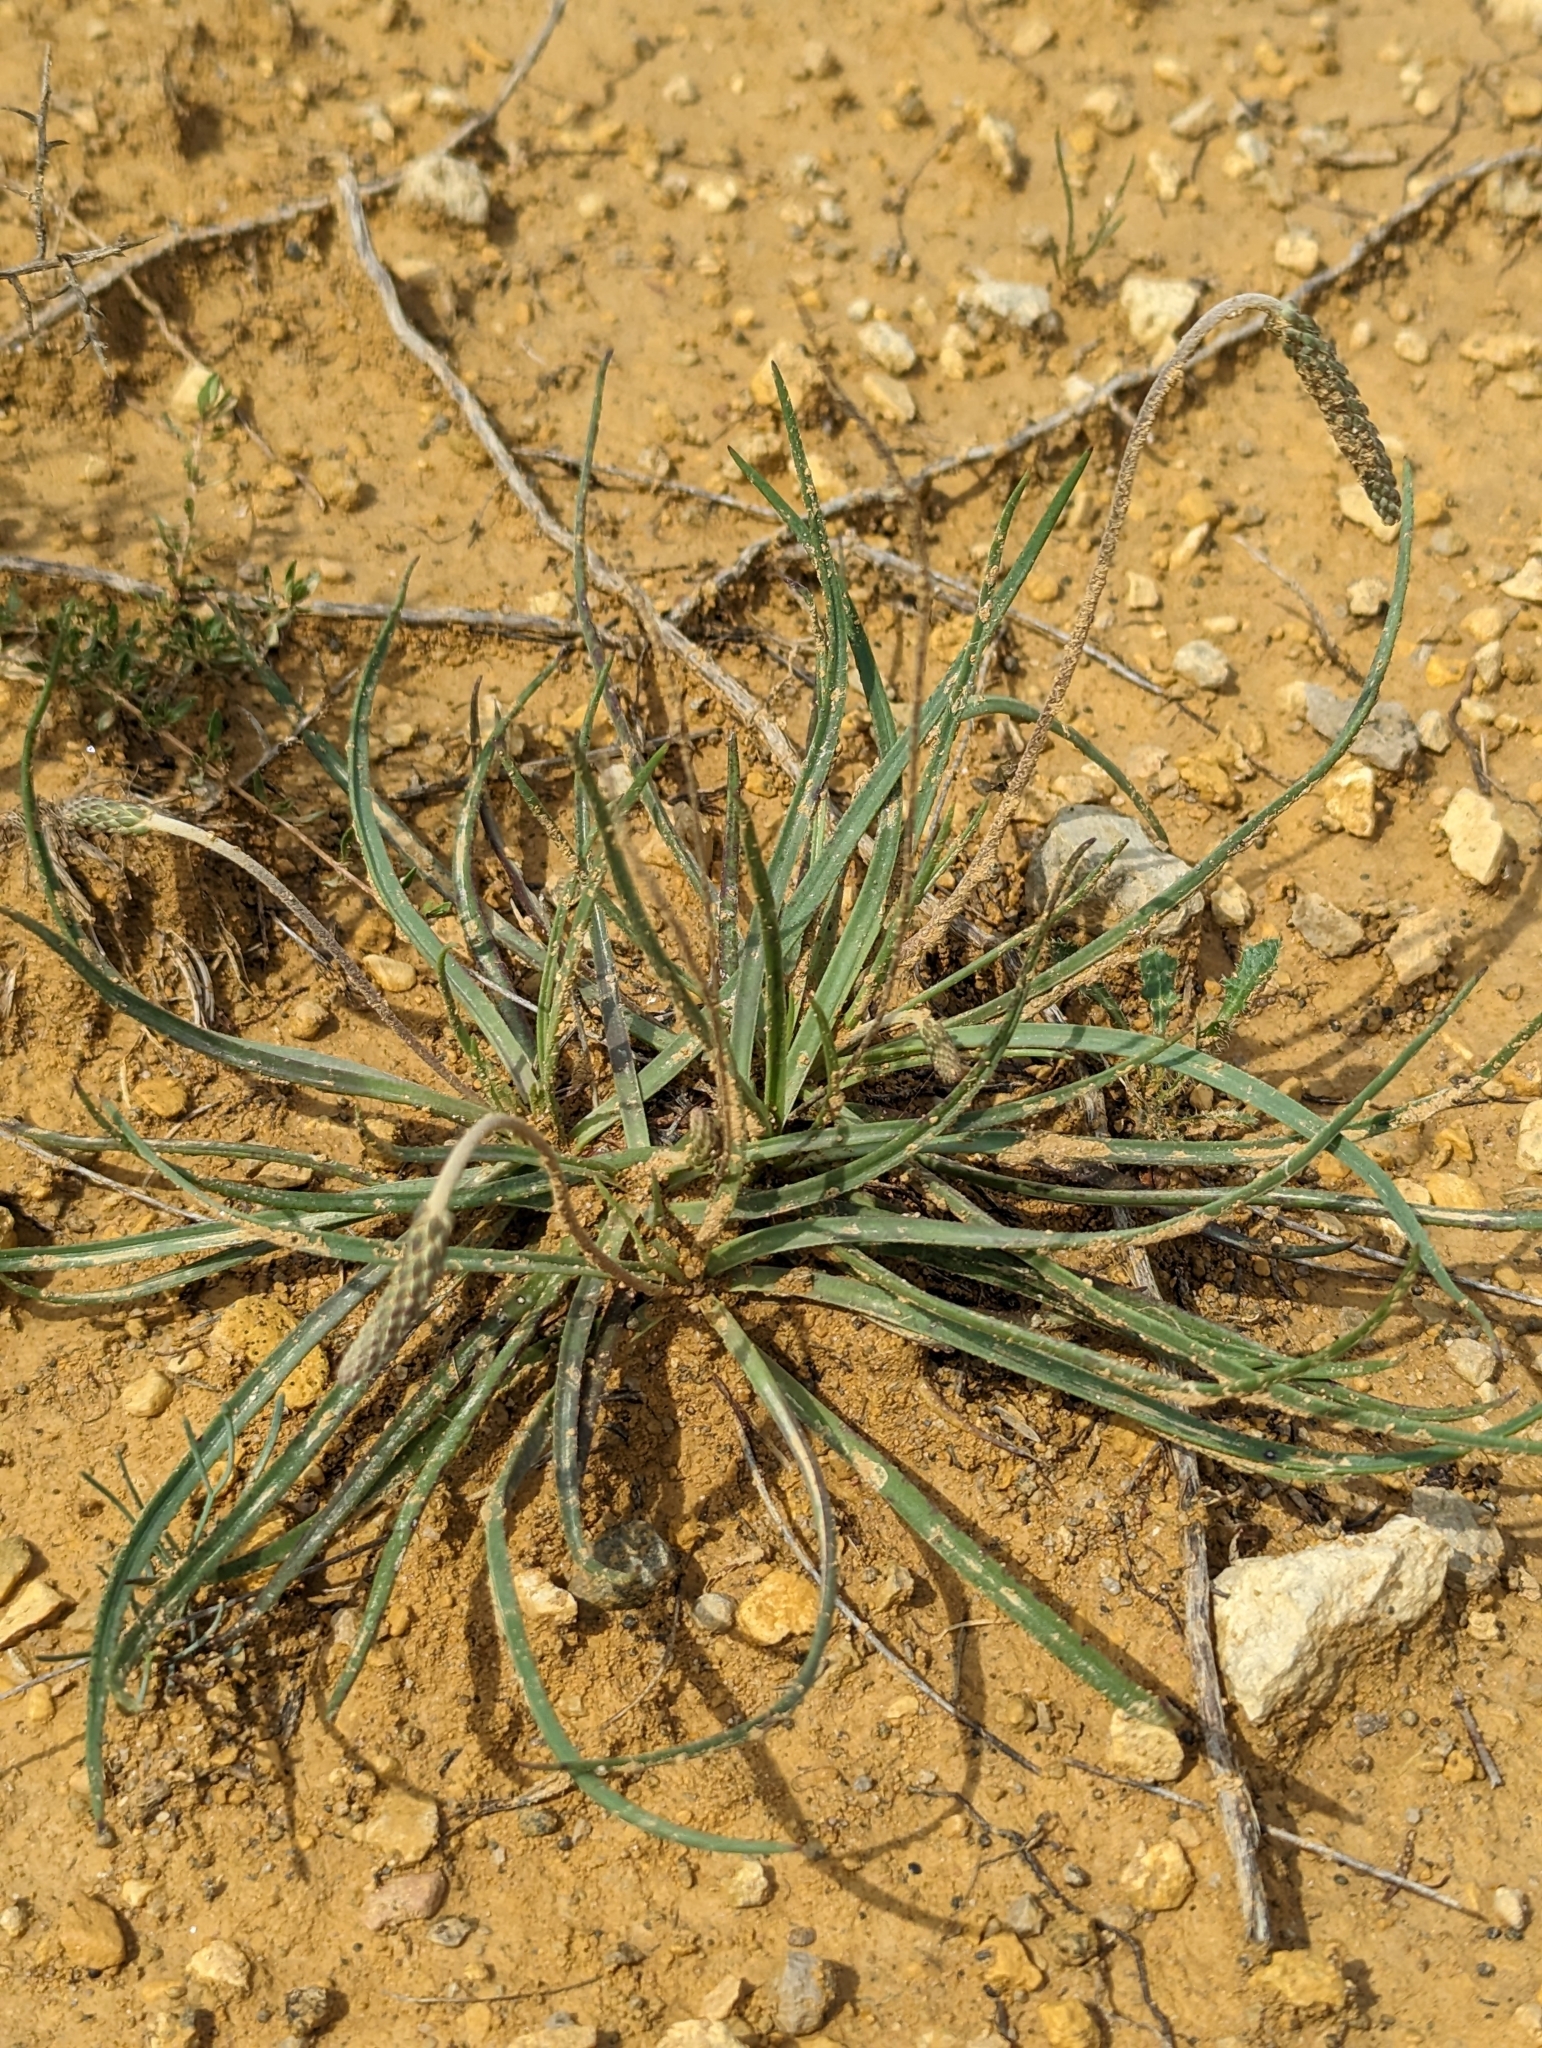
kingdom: Plantae
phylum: Tracheophyta
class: Magnoliopsida
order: Lamiales
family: Plantaginaceae
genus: Plantago
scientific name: Plantago maritima
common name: Sea plantain
